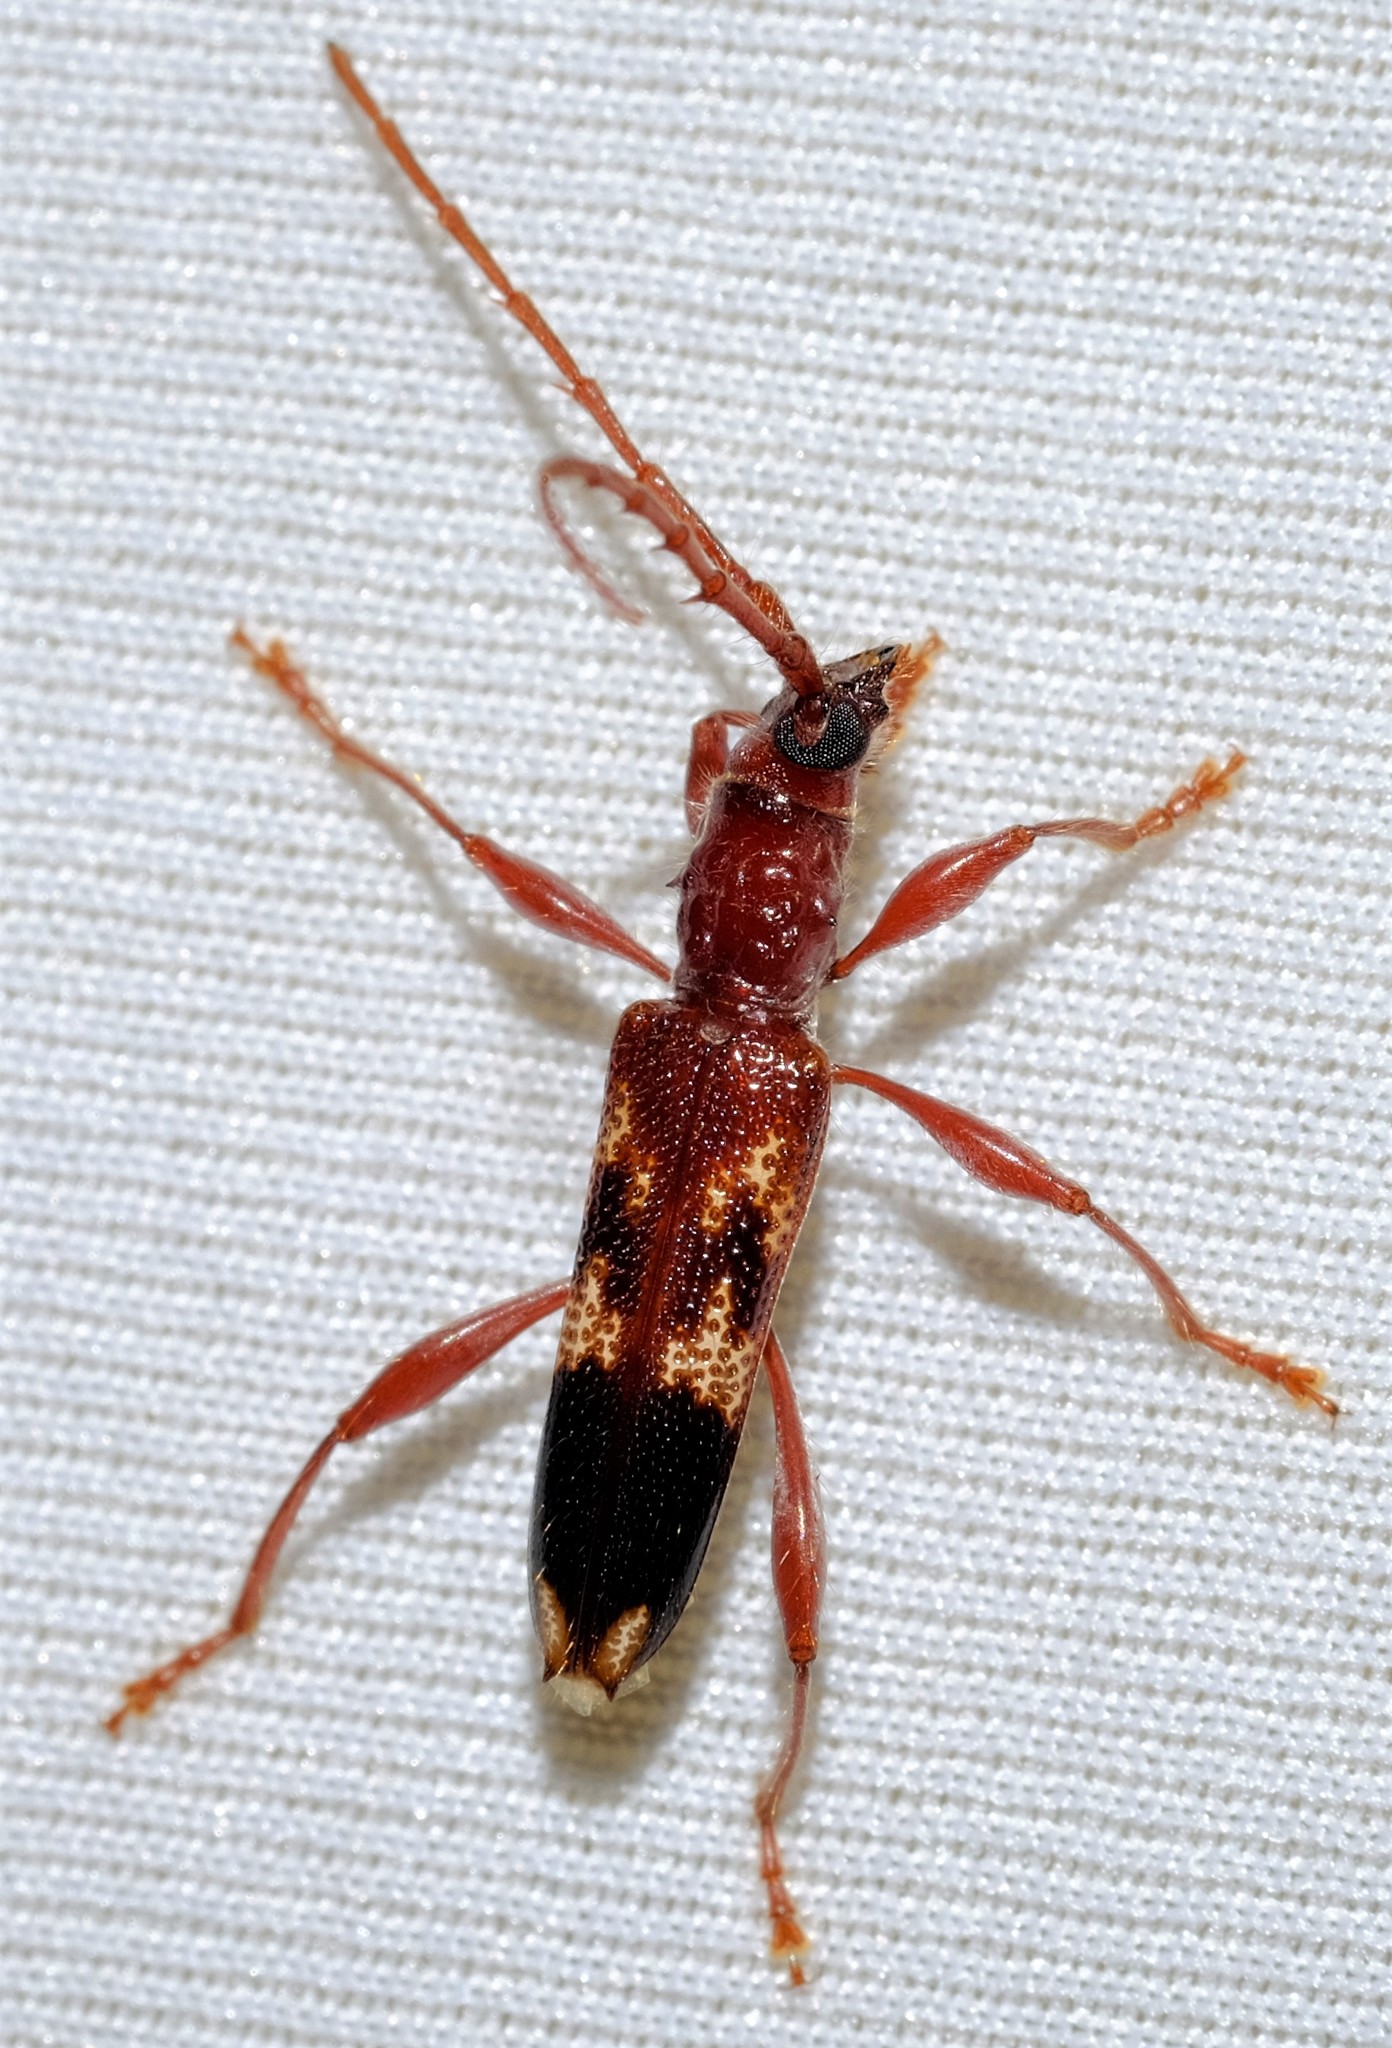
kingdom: Animalia
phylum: Arthropoda
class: Insecta
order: Coleoptera
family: Cerambycidae
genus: Coptocercus
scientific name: Coptocercus abberrans
